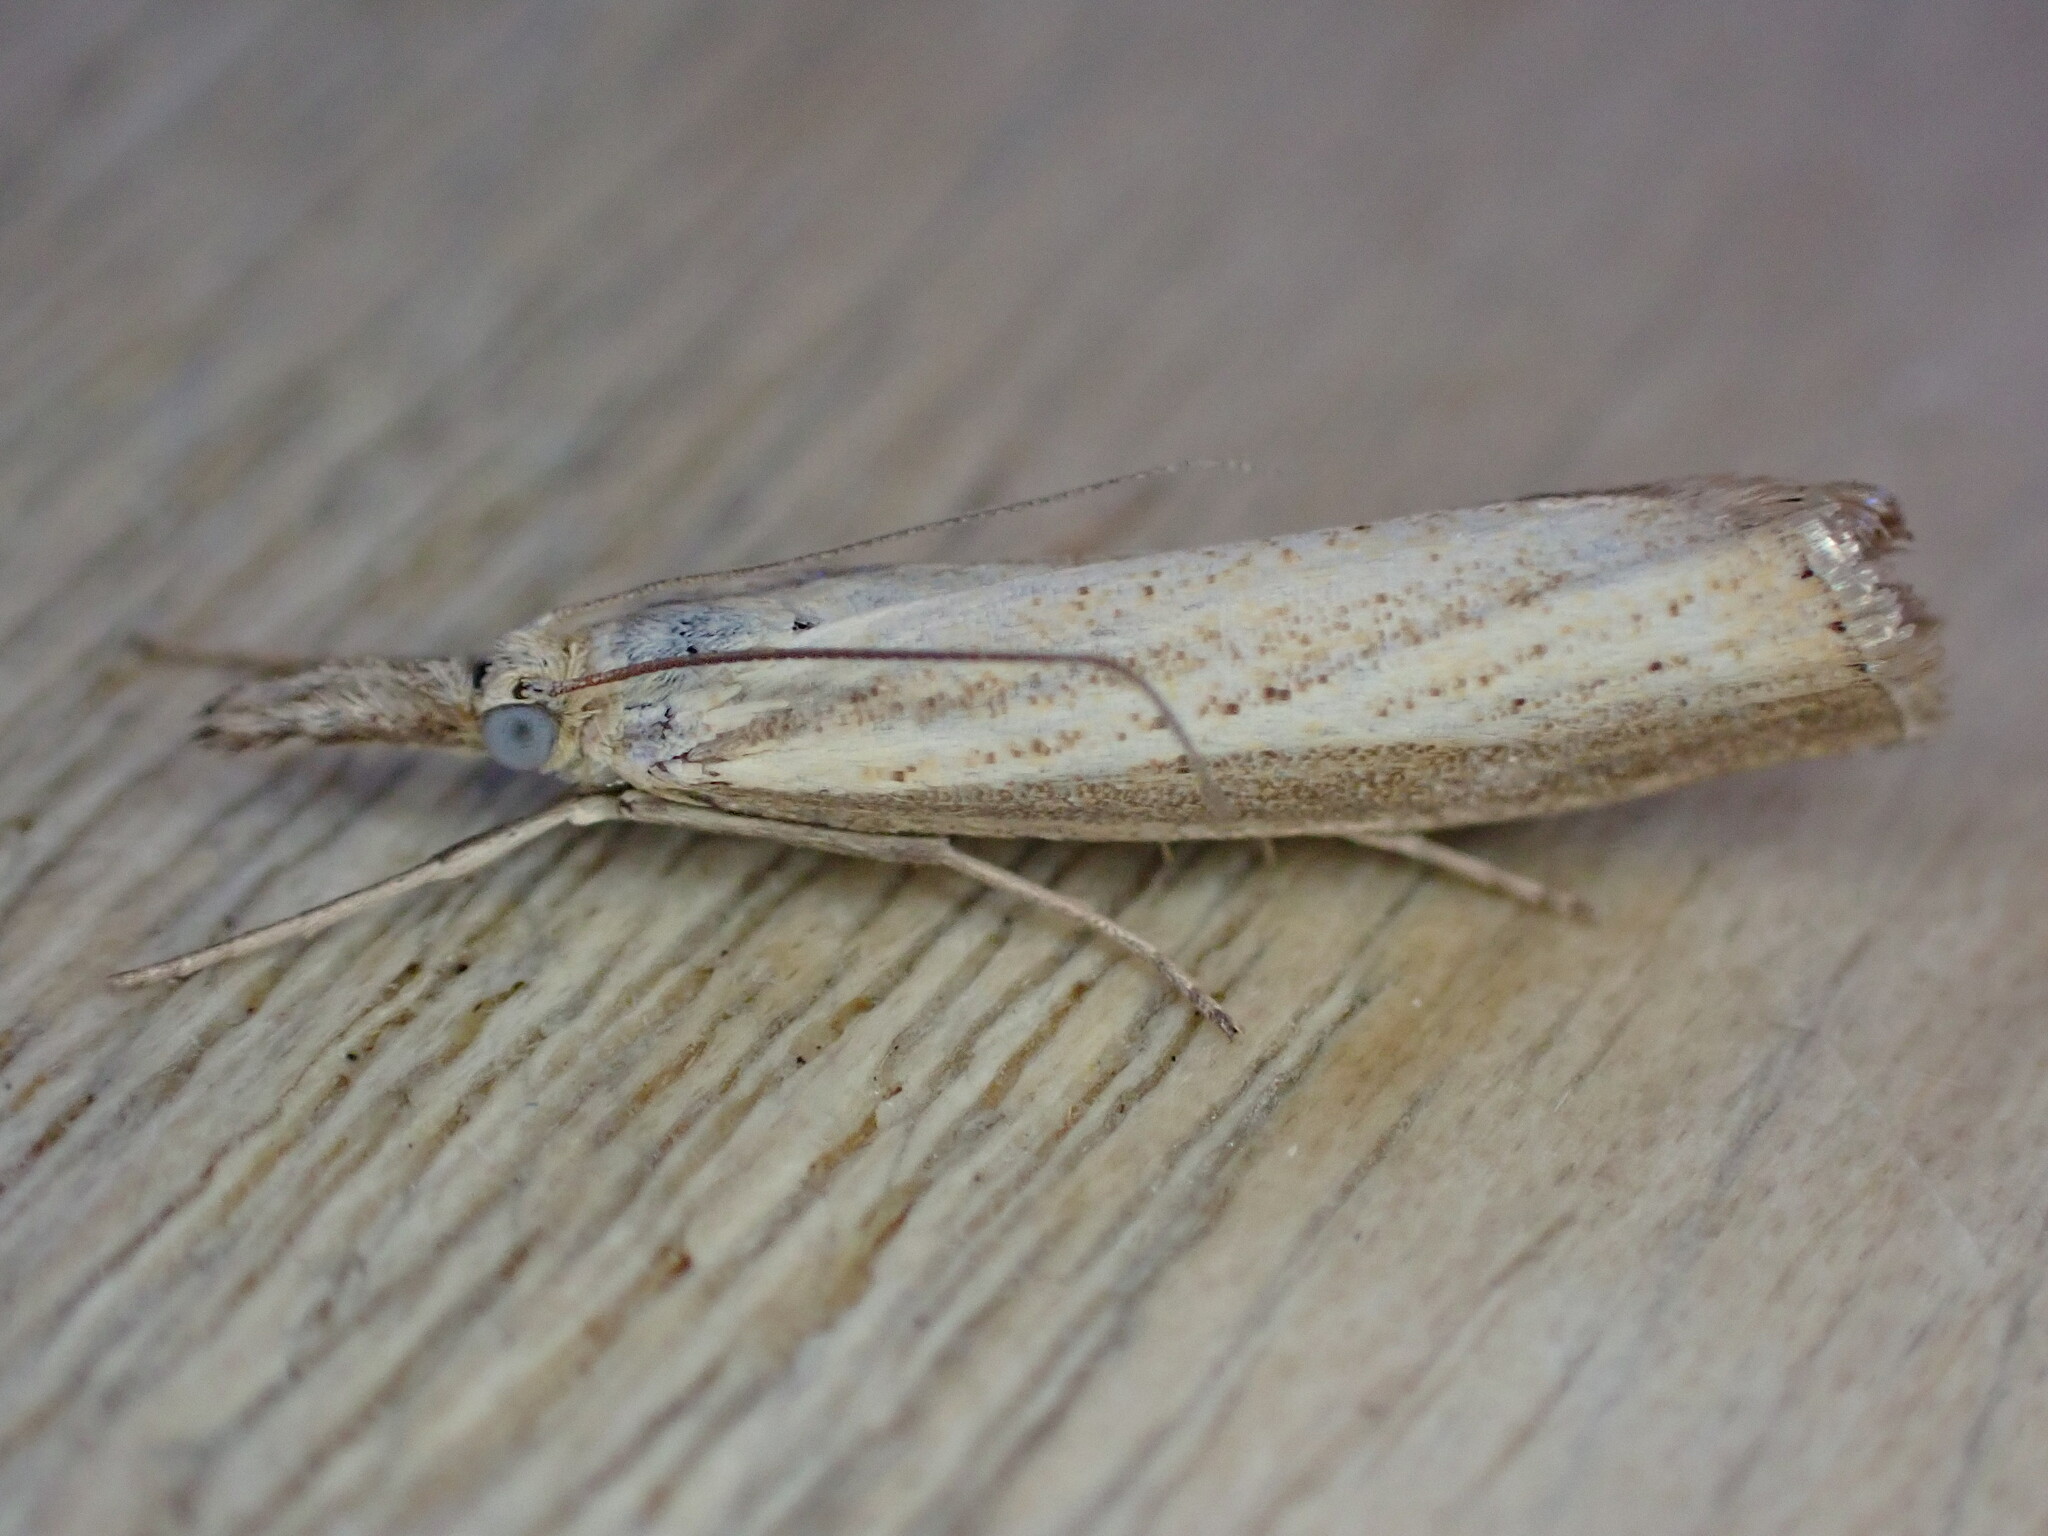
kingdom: Animalia
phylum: Arthropoda
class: Insecta
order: Lepidoptera
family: Crambidae
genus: Agriphila
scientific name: Agriphila straminella
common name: Straw grass-veneer
